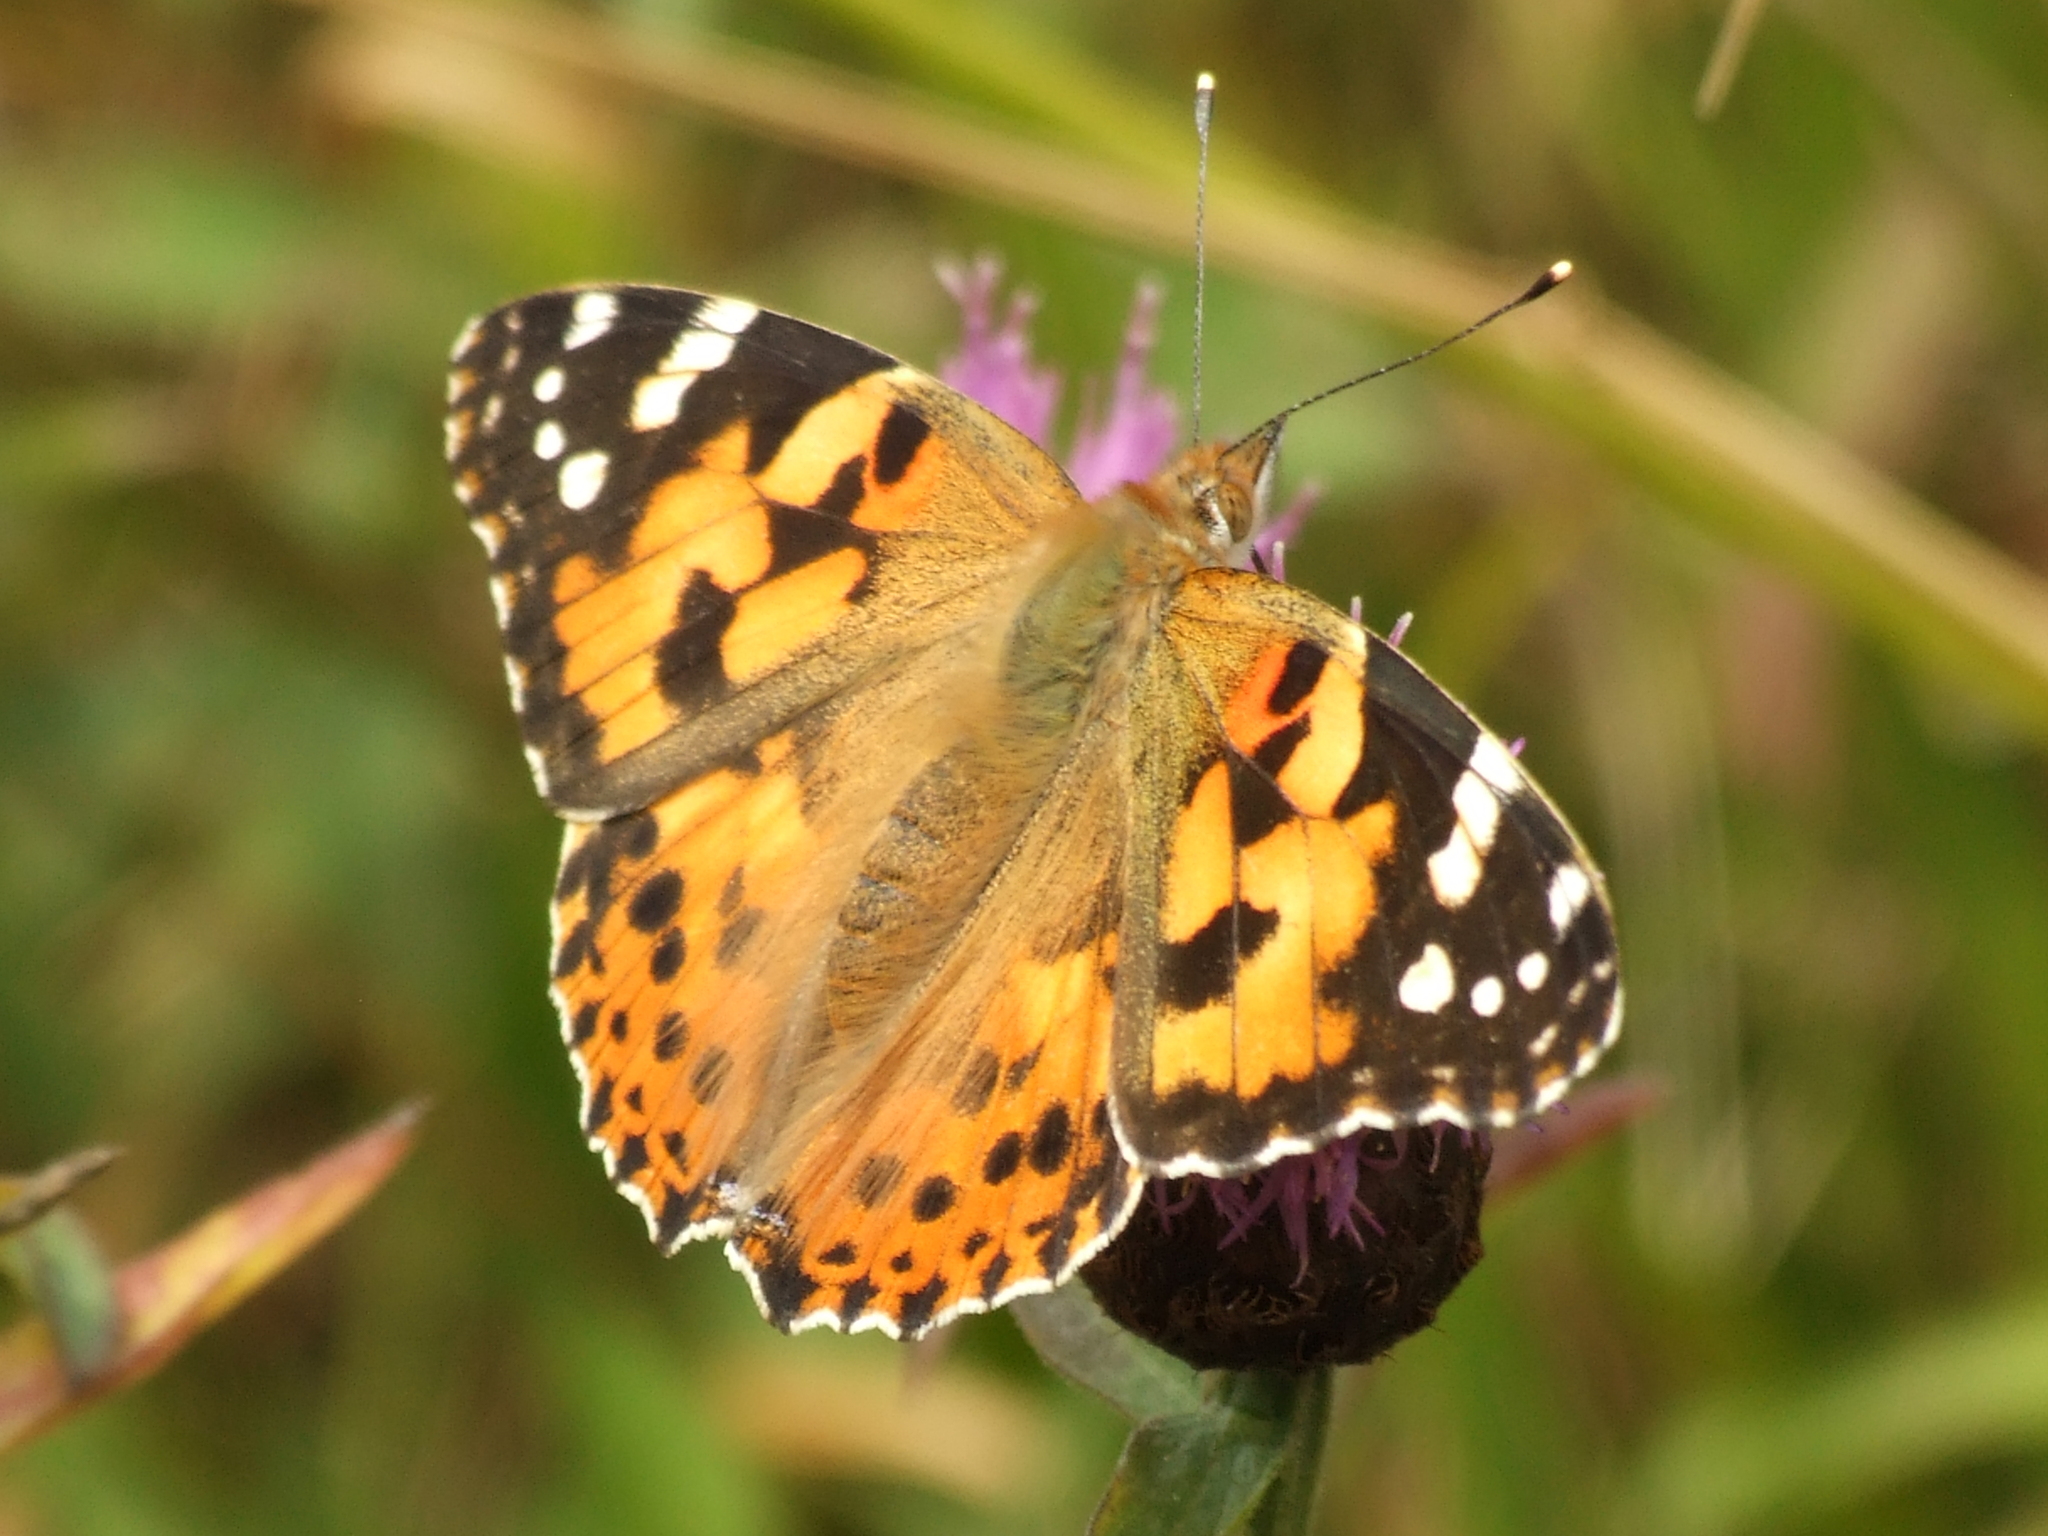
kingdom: Animalia
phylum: Arthropoda
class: Insecta
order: Lepidoptera
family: Nymphalidae
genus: Vanessa
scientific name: Vanessa cardui
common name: Painted lady
